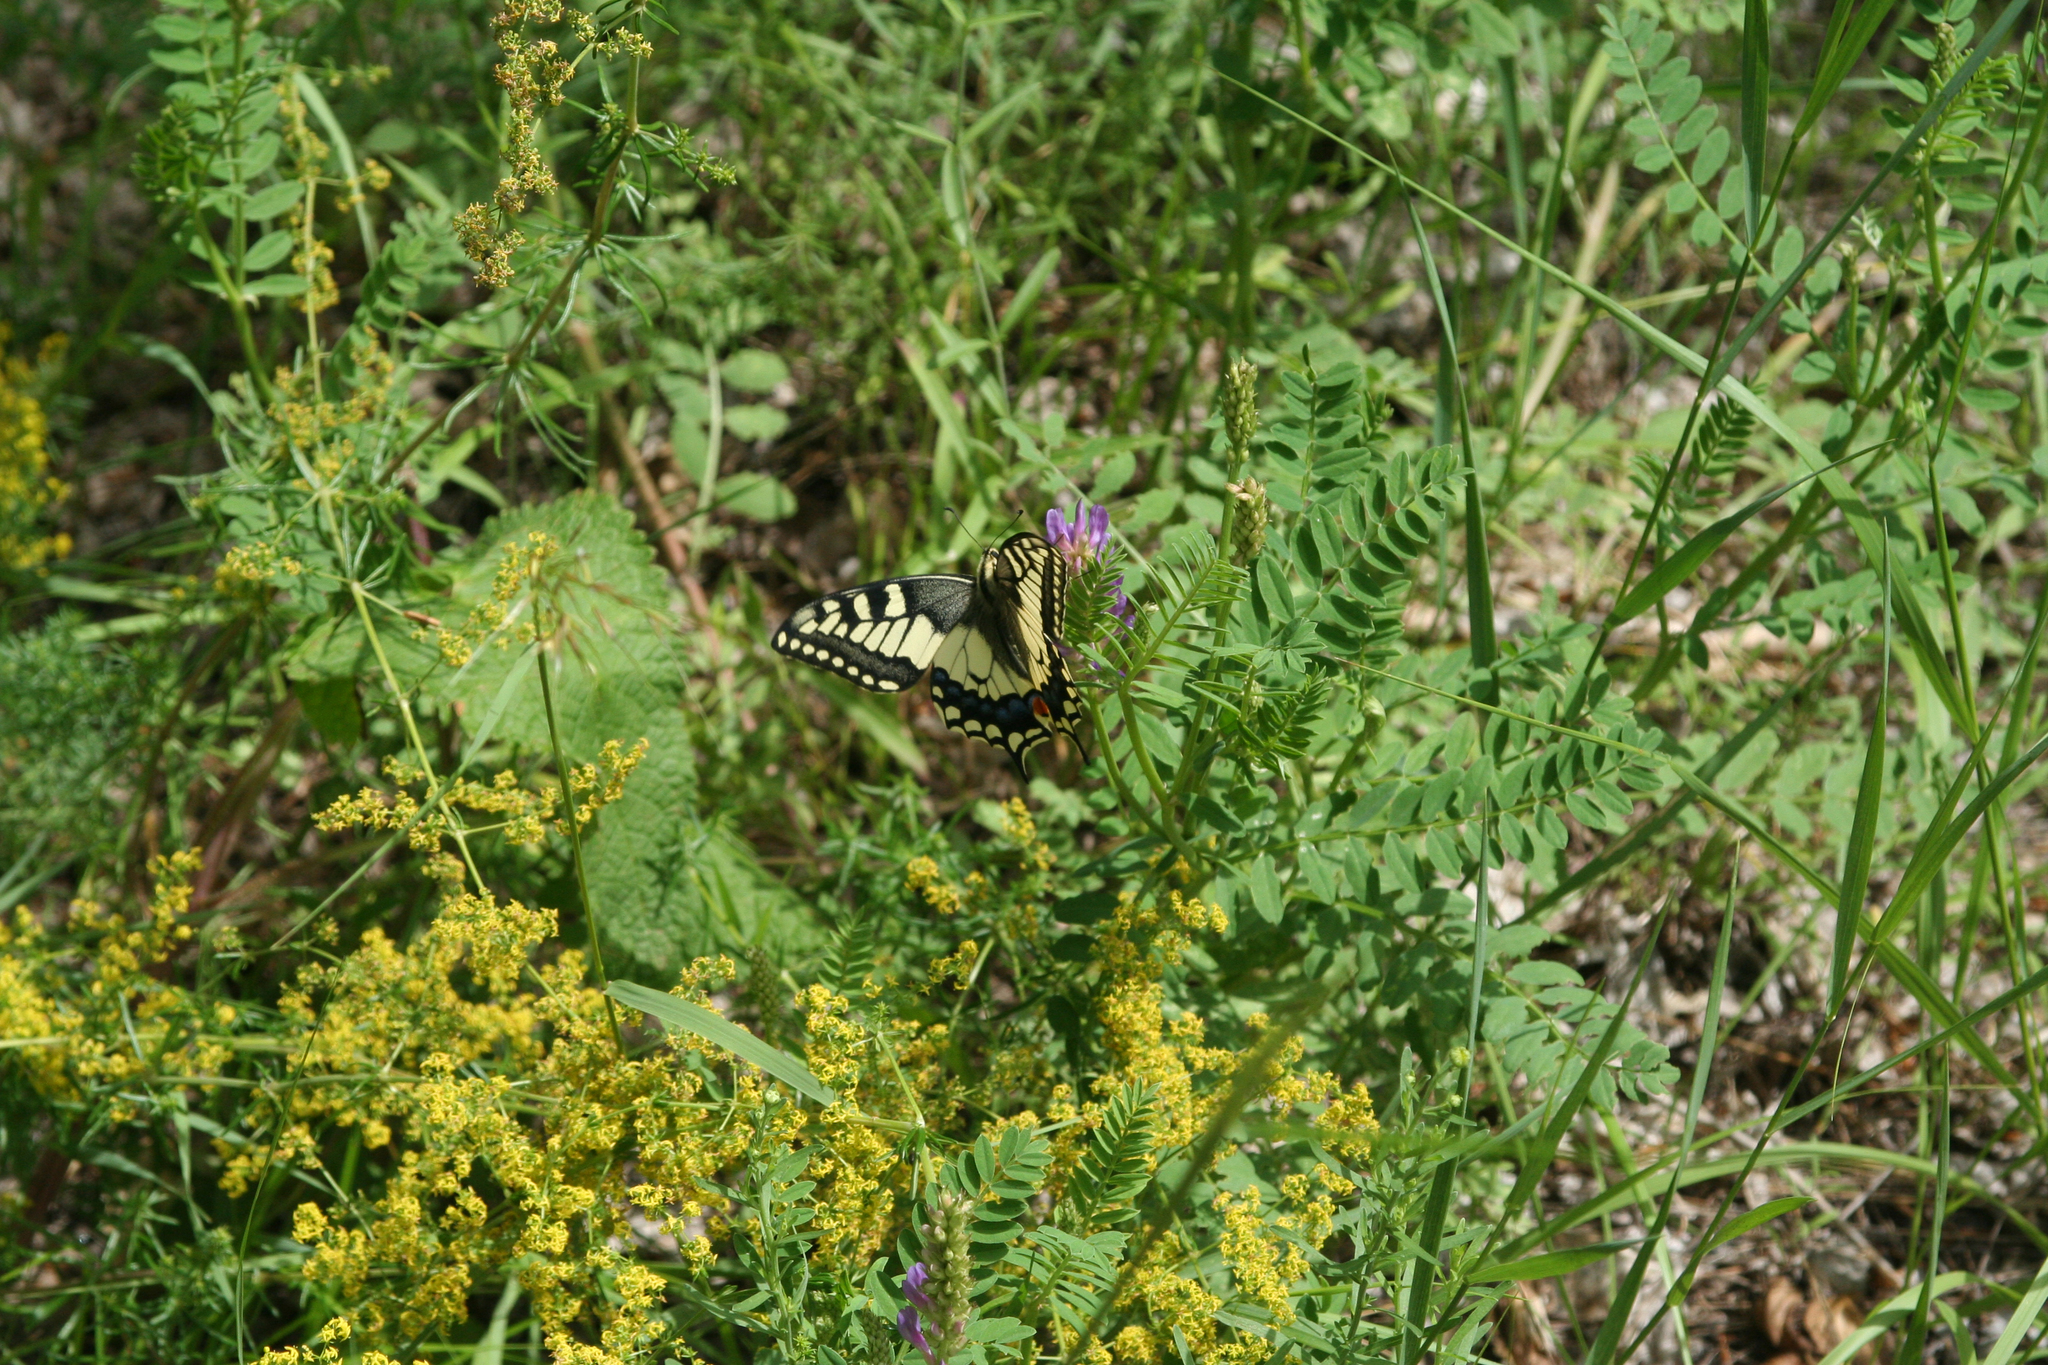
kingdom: Plantae
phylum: Tracheophyta
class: Magnoliopsida
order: Gentianales
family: Rubiaceae
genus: Galium
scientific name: Galium verum
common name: Lady's bedstraw
